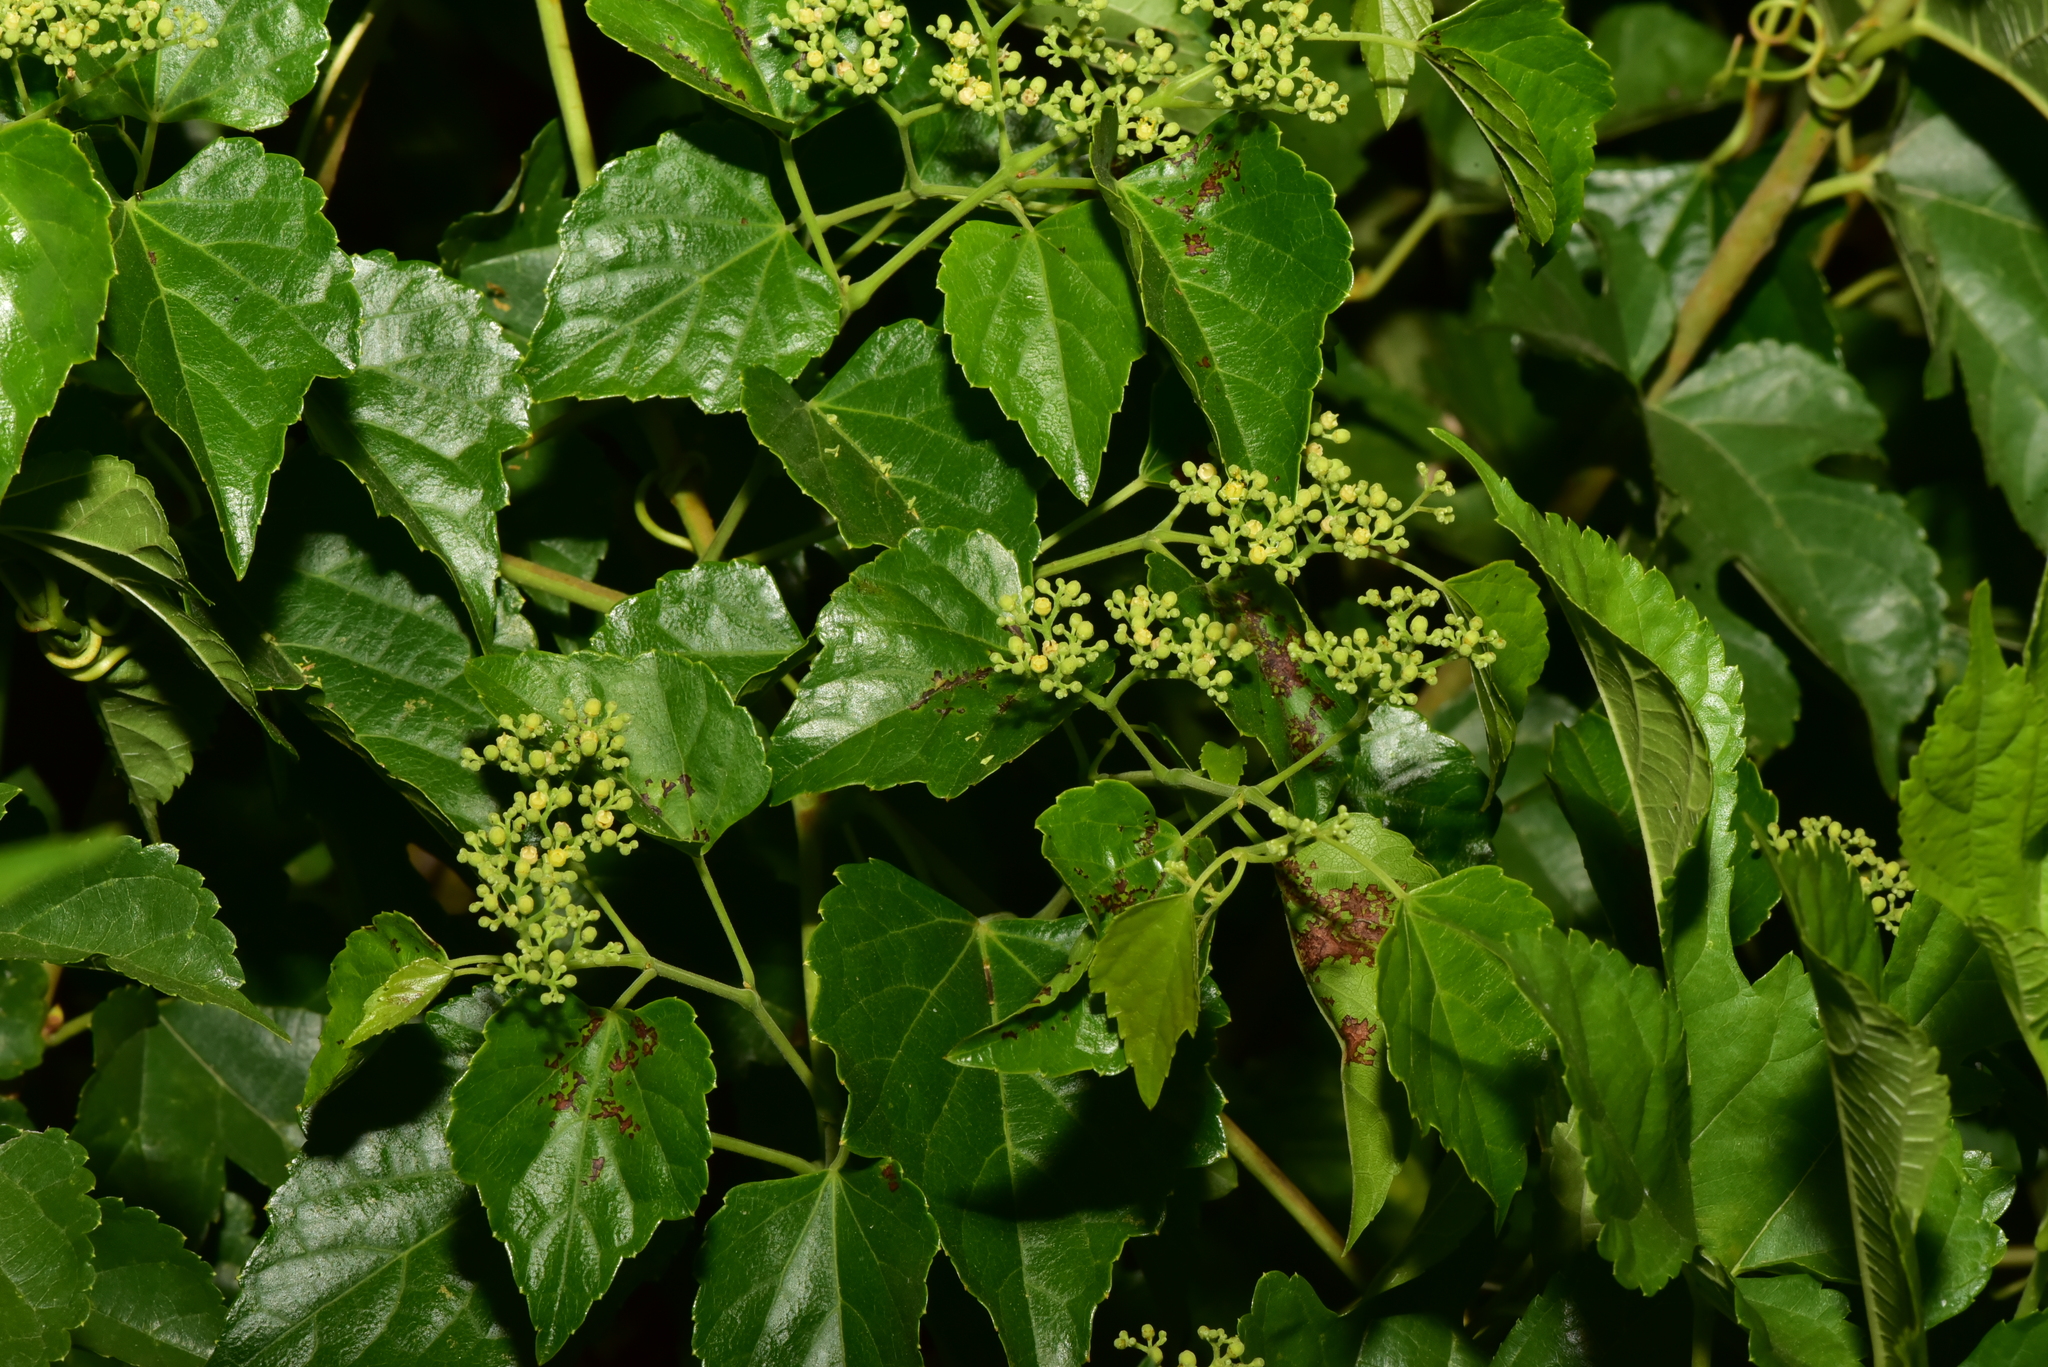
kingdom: Plantae
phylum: Tracheophyta
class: Magnoliopsida
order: Vitales
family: Vitaceae
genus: Ampelopsis
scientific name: Ampelopsis glandulosa
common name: Amur peppervine
